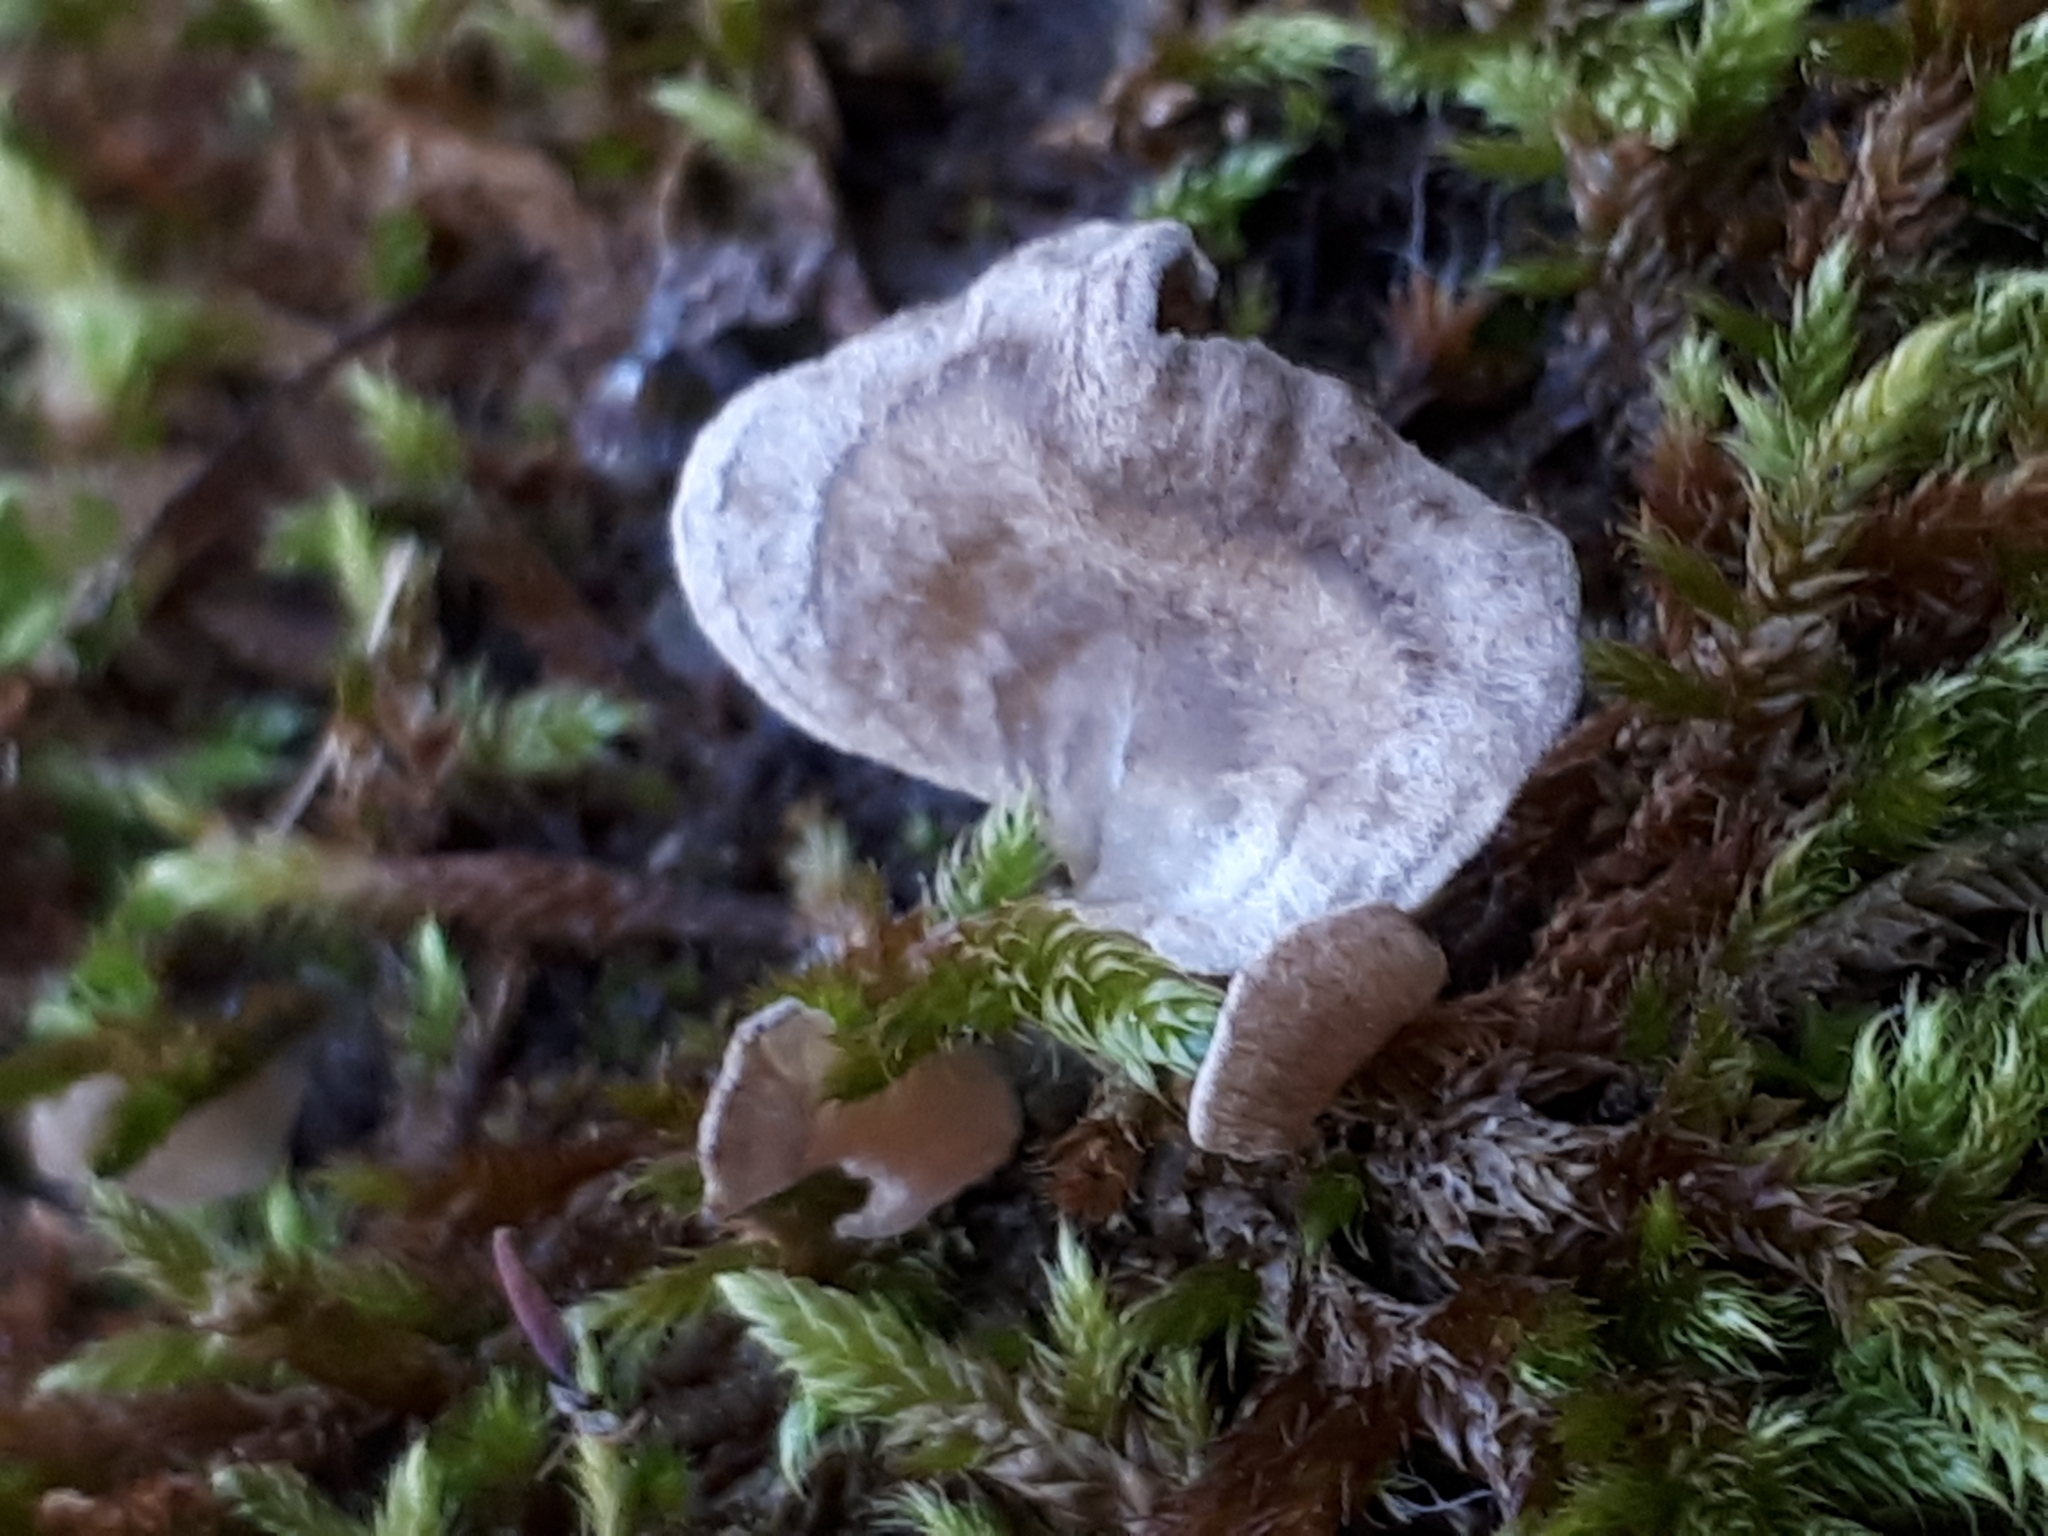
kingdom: Fungi
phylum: Basidiomycota
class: Agaricomycetes
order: Agaricales
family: Hygrophoraceae
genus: Arrhenia
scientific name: Arrhenia
